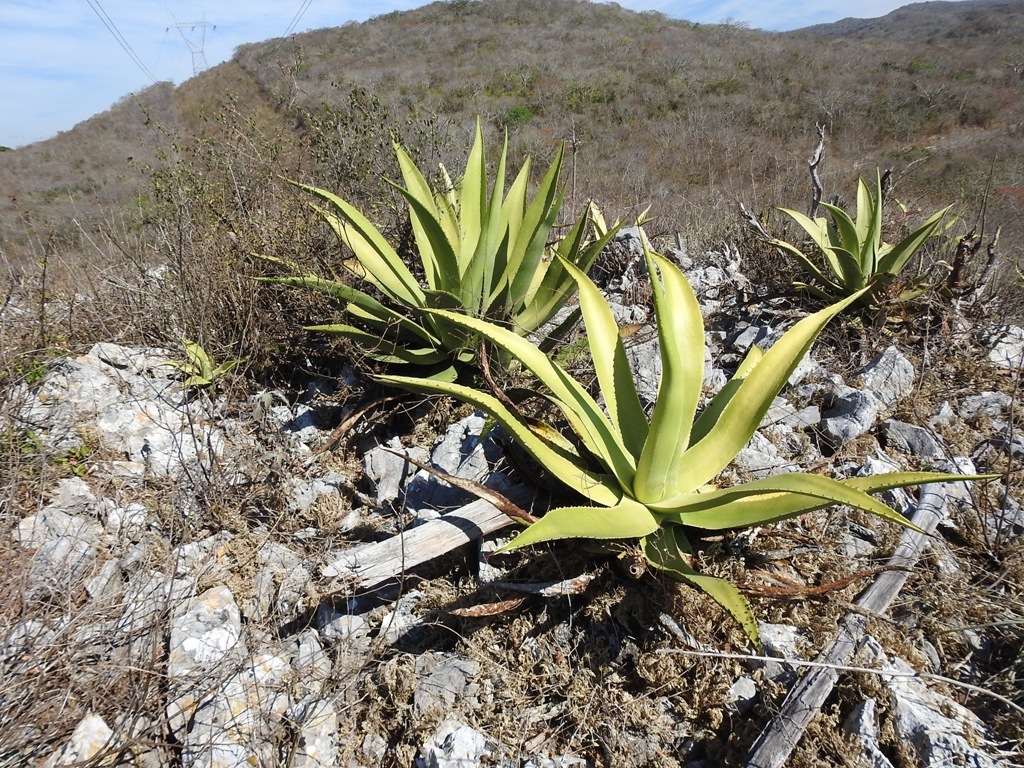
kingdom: Plantae
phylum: Tracheophyta
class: Liliopsida
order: Asparagales
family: Asparagaceae
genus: Agave
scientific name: Agave kewensis
